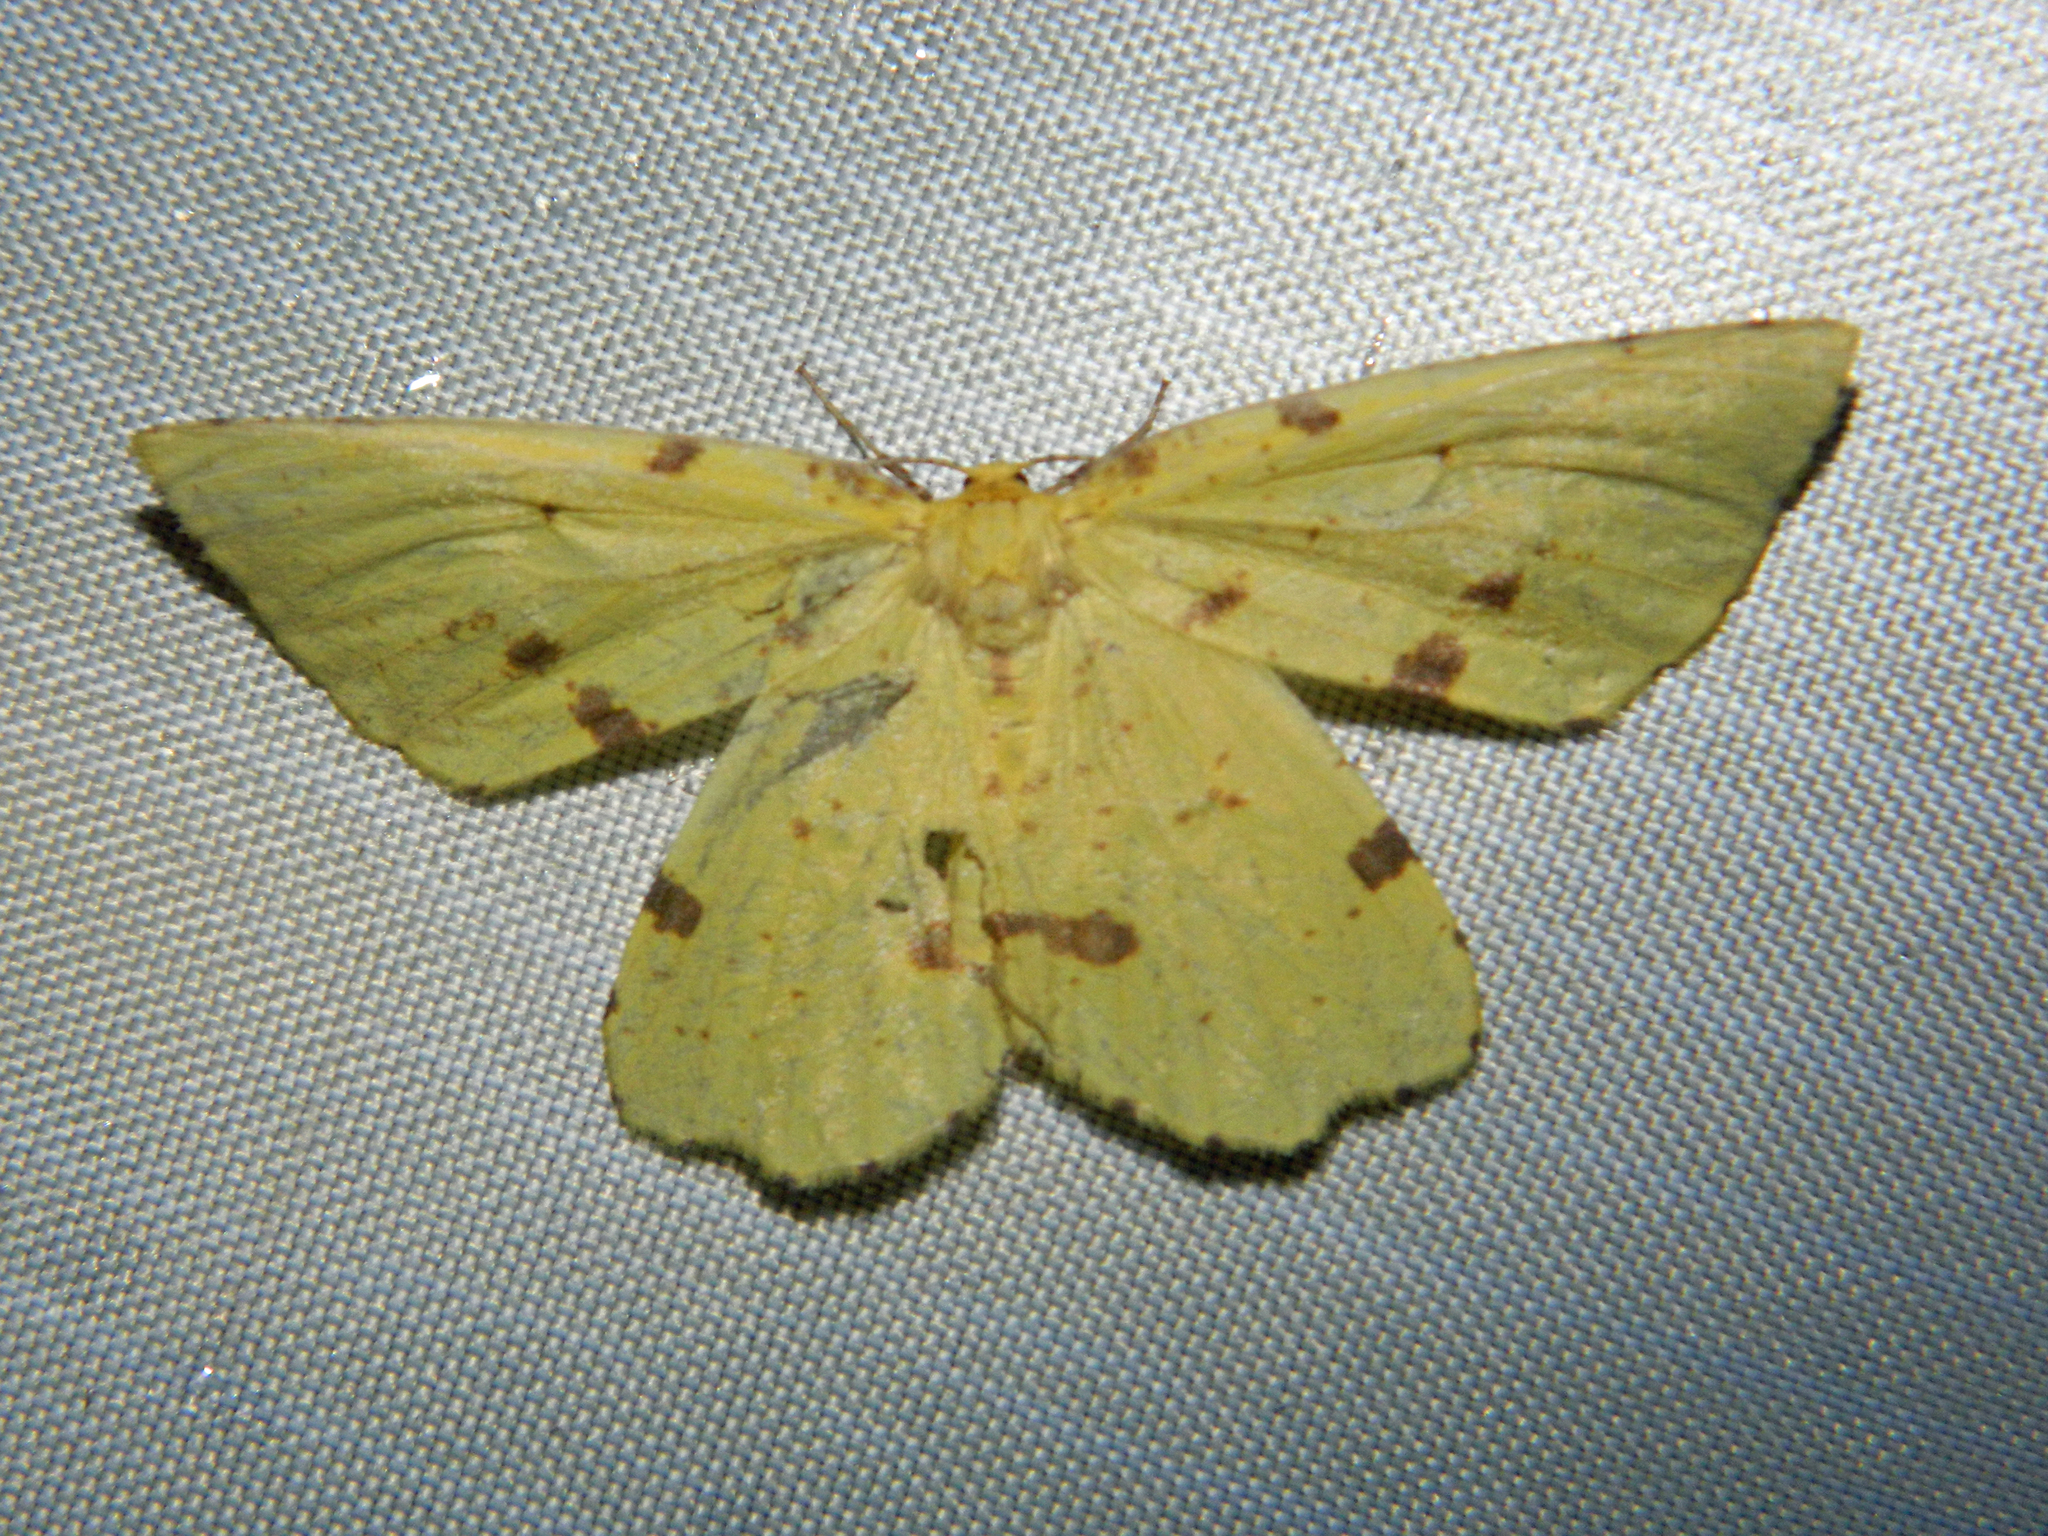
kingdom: Animalia
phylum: Arthropoda
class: Insecta
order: Lepidoptera
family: Geometridae
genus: Xanthotype
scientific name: Xanthotype
